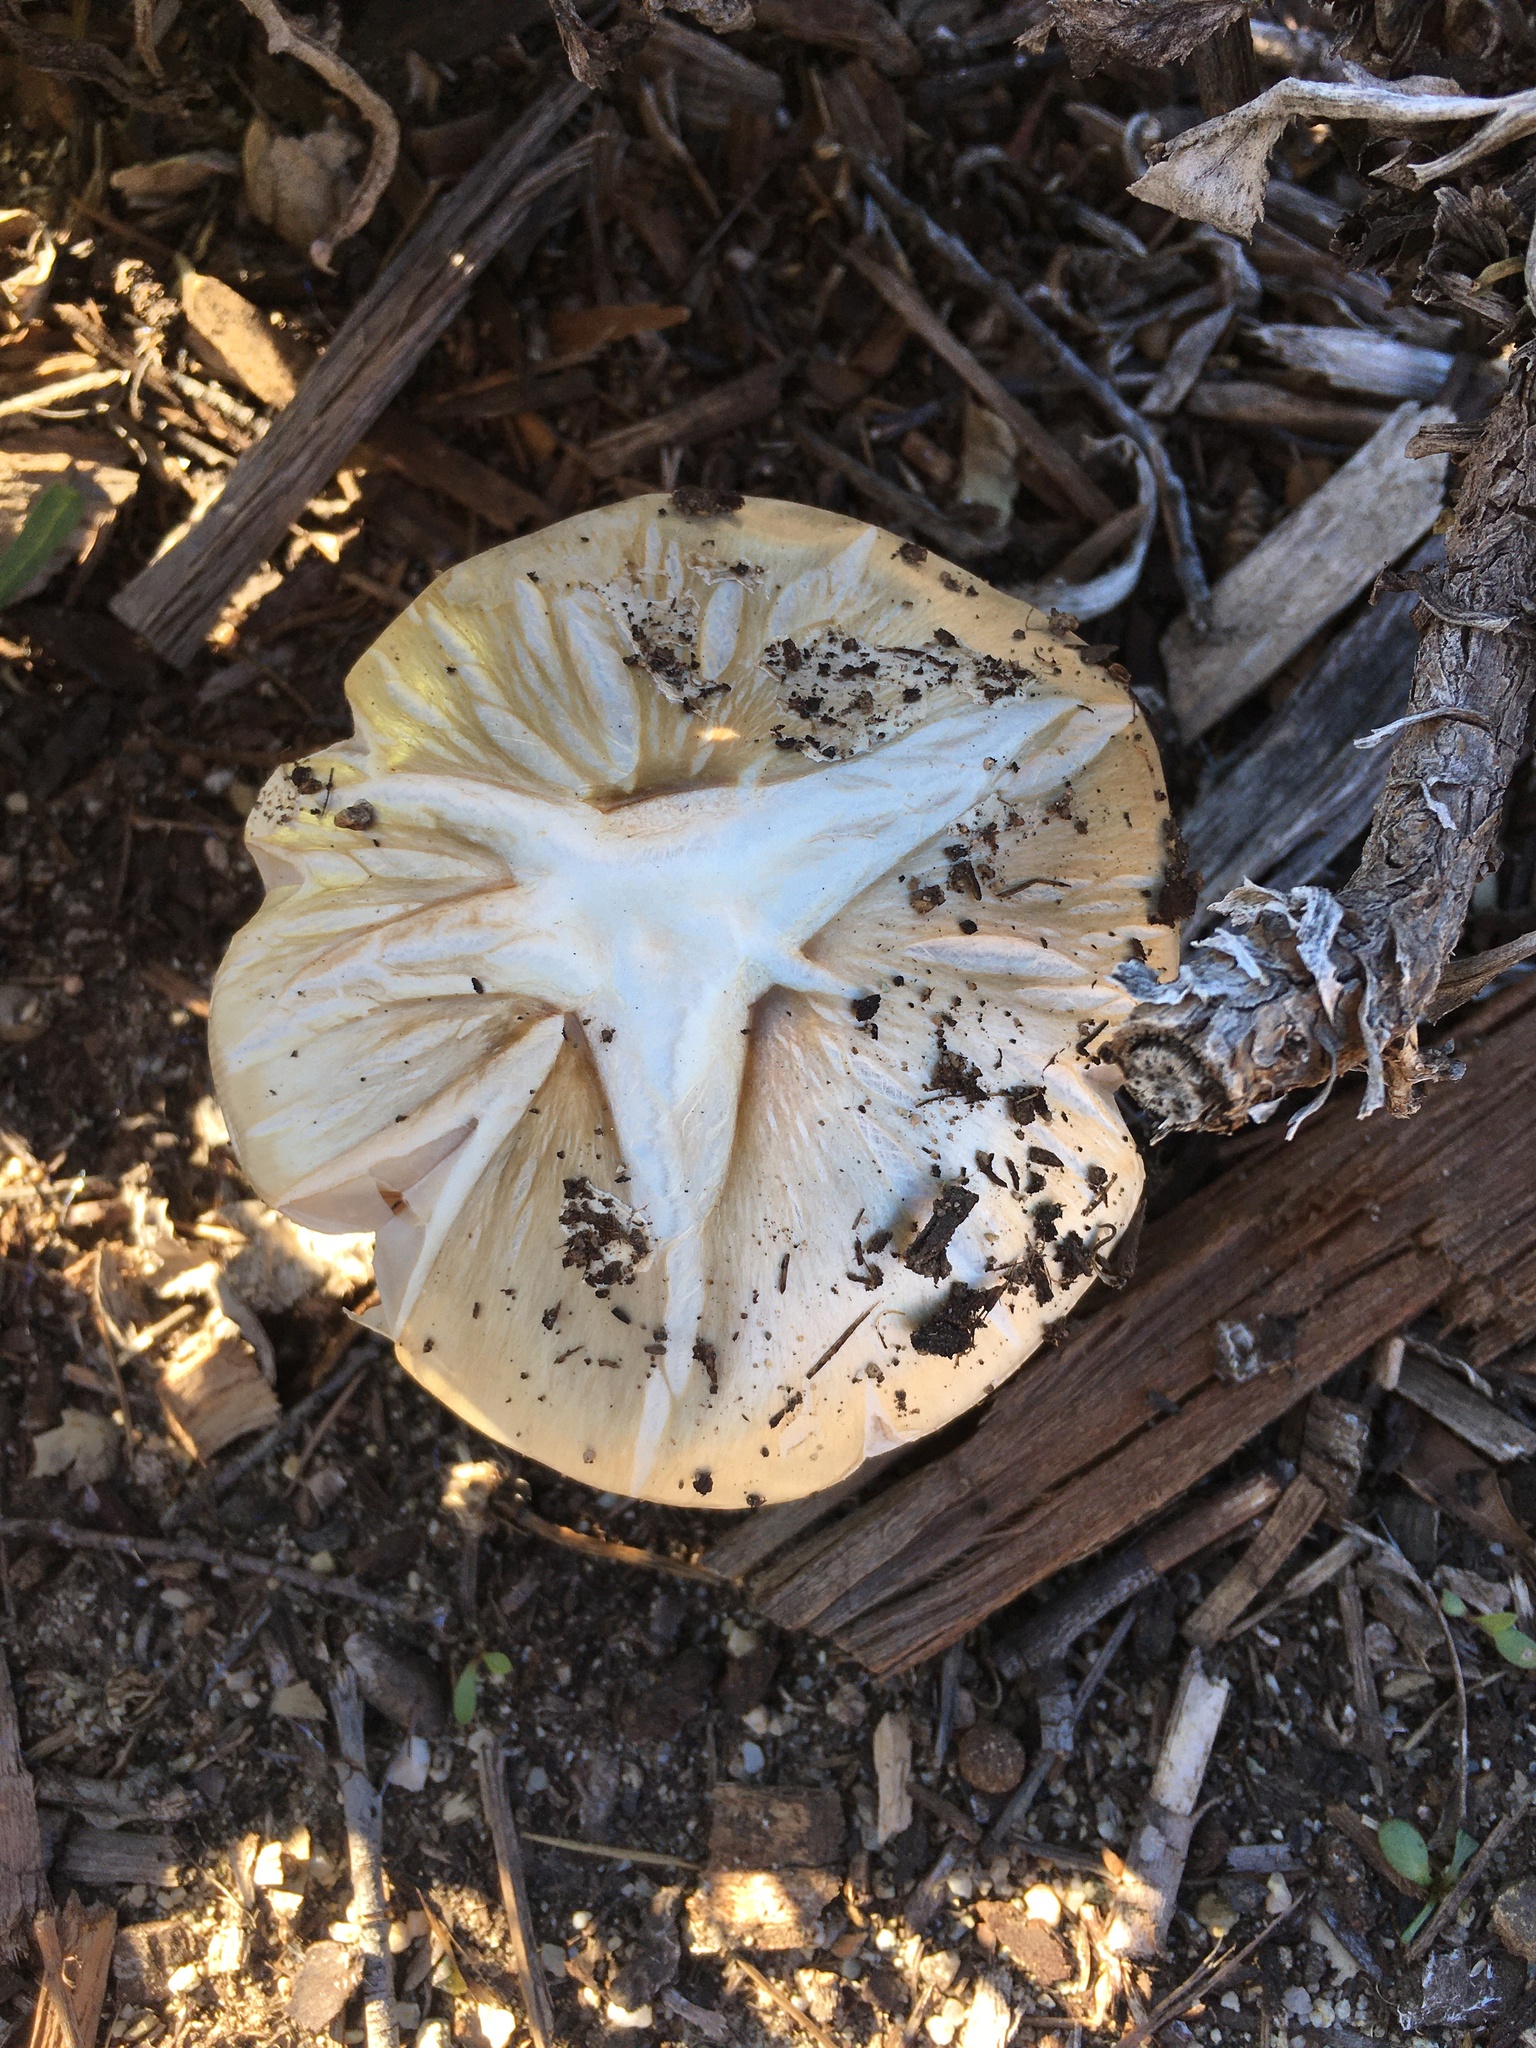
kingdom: Fungi
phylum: Basidiomycota
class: Agaricomycetes
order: Agaricales
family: Pluteaceae
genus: Volvopluteus
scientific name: Volvopluteus gloiocephalus
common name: Stubble rosegill
